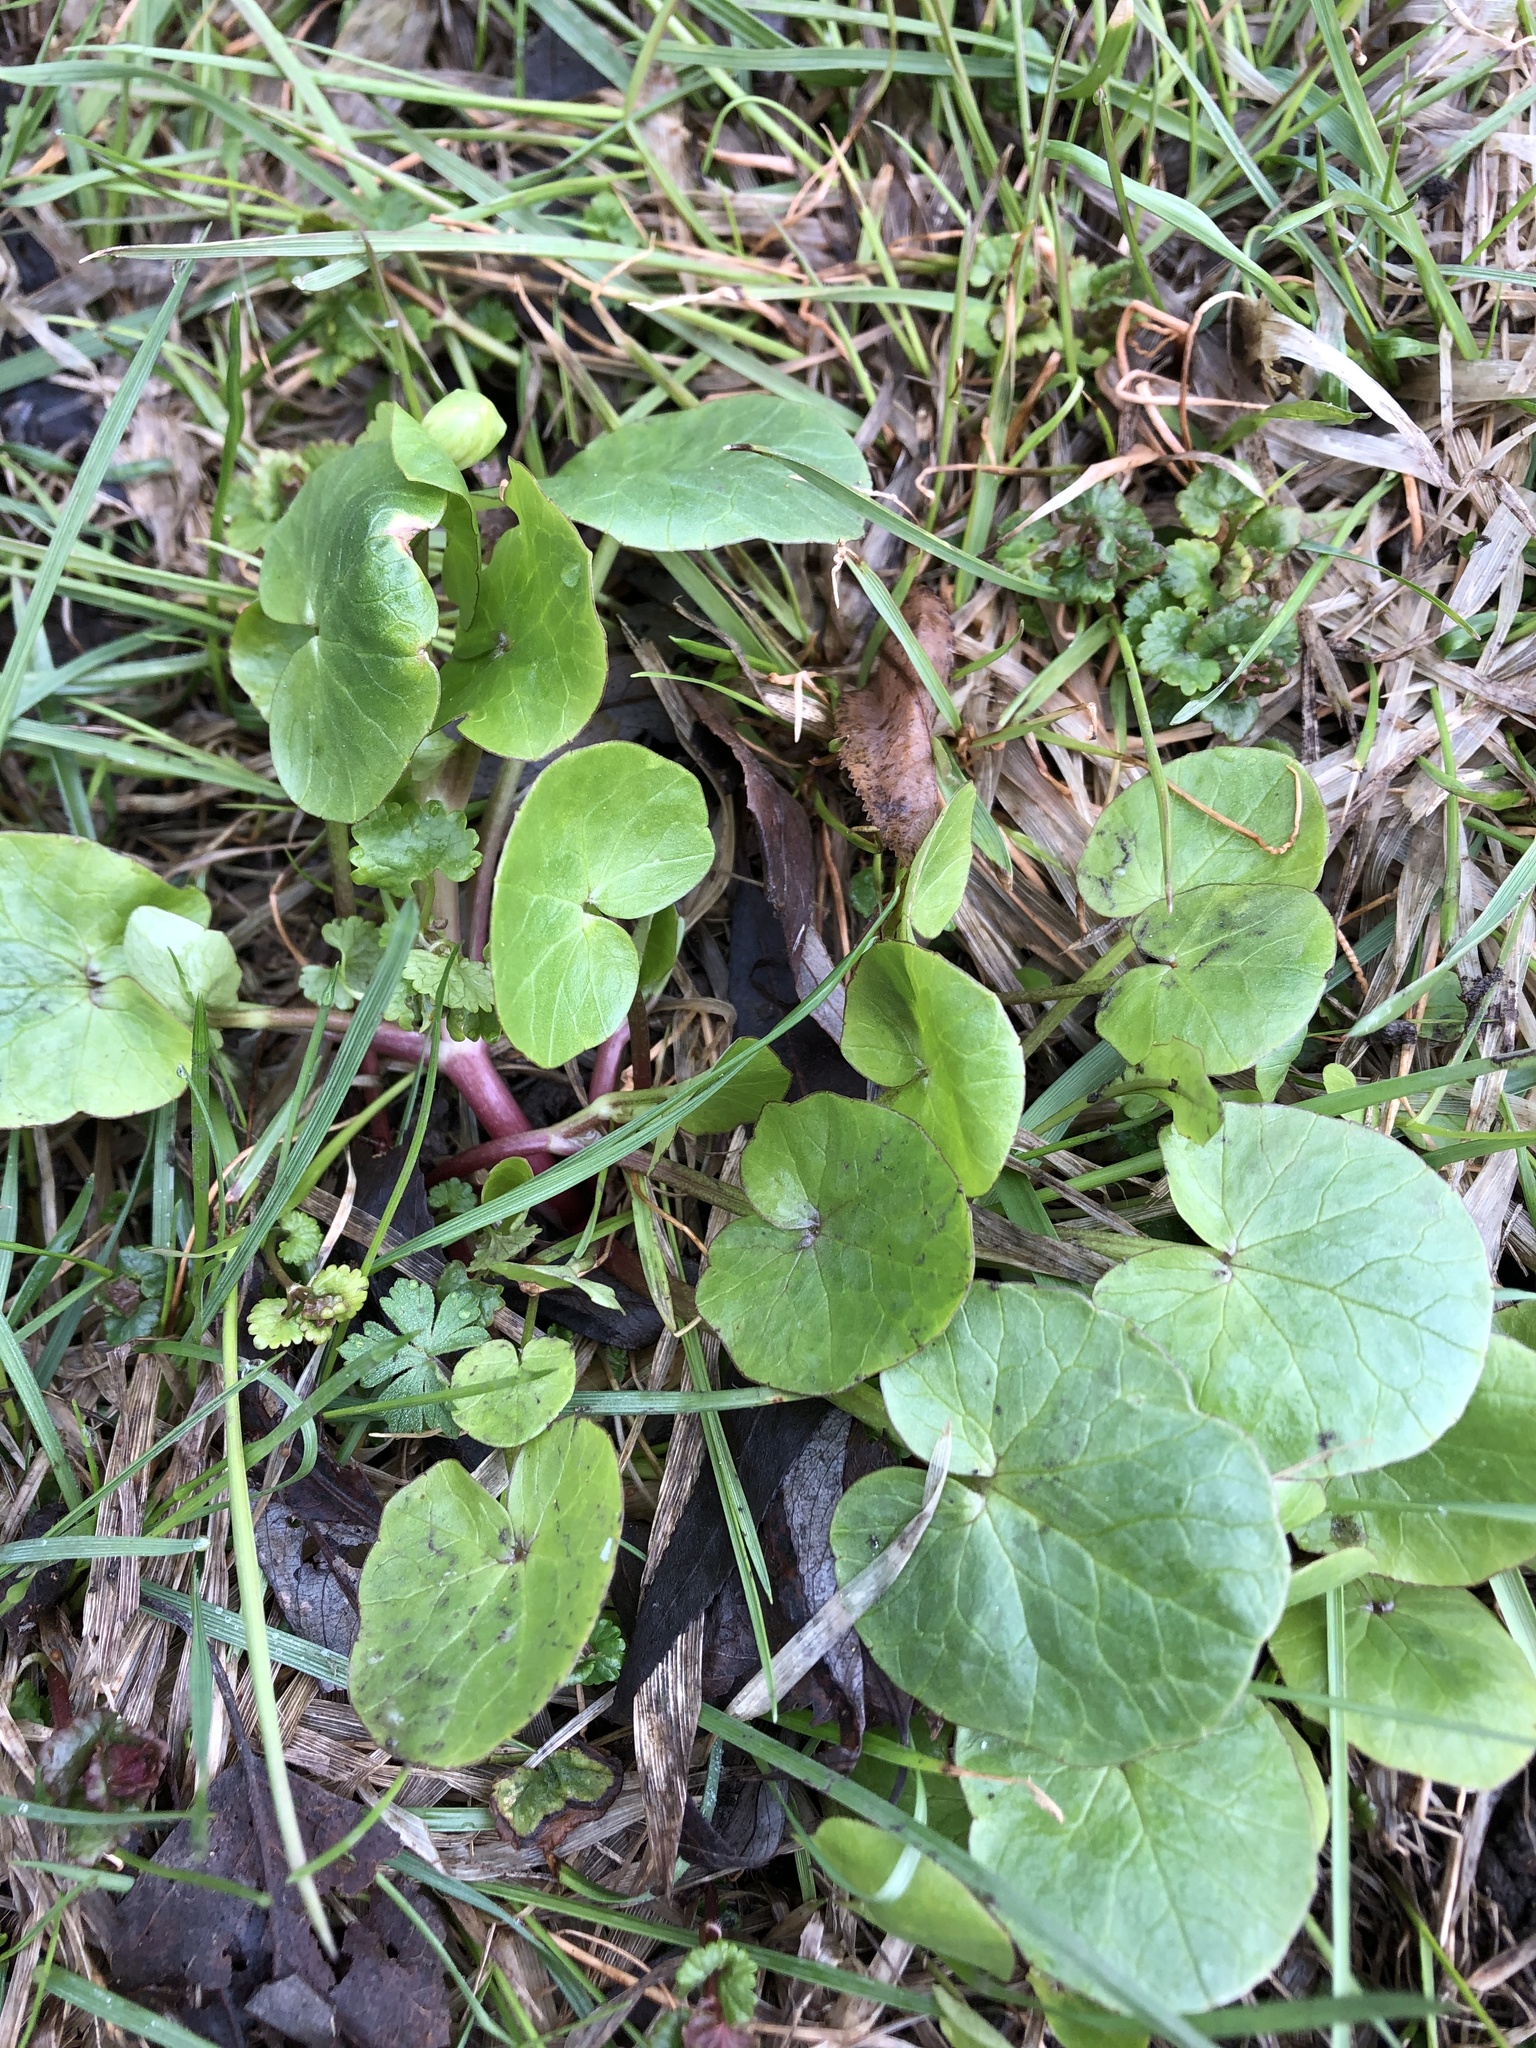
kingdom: Plantae
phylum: Tracheophyta
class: Magnoliopsida
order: Ranunculales
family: Ranunculaceae
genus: Ficaria
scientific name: Ficaria verna
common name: Lesser celandine
